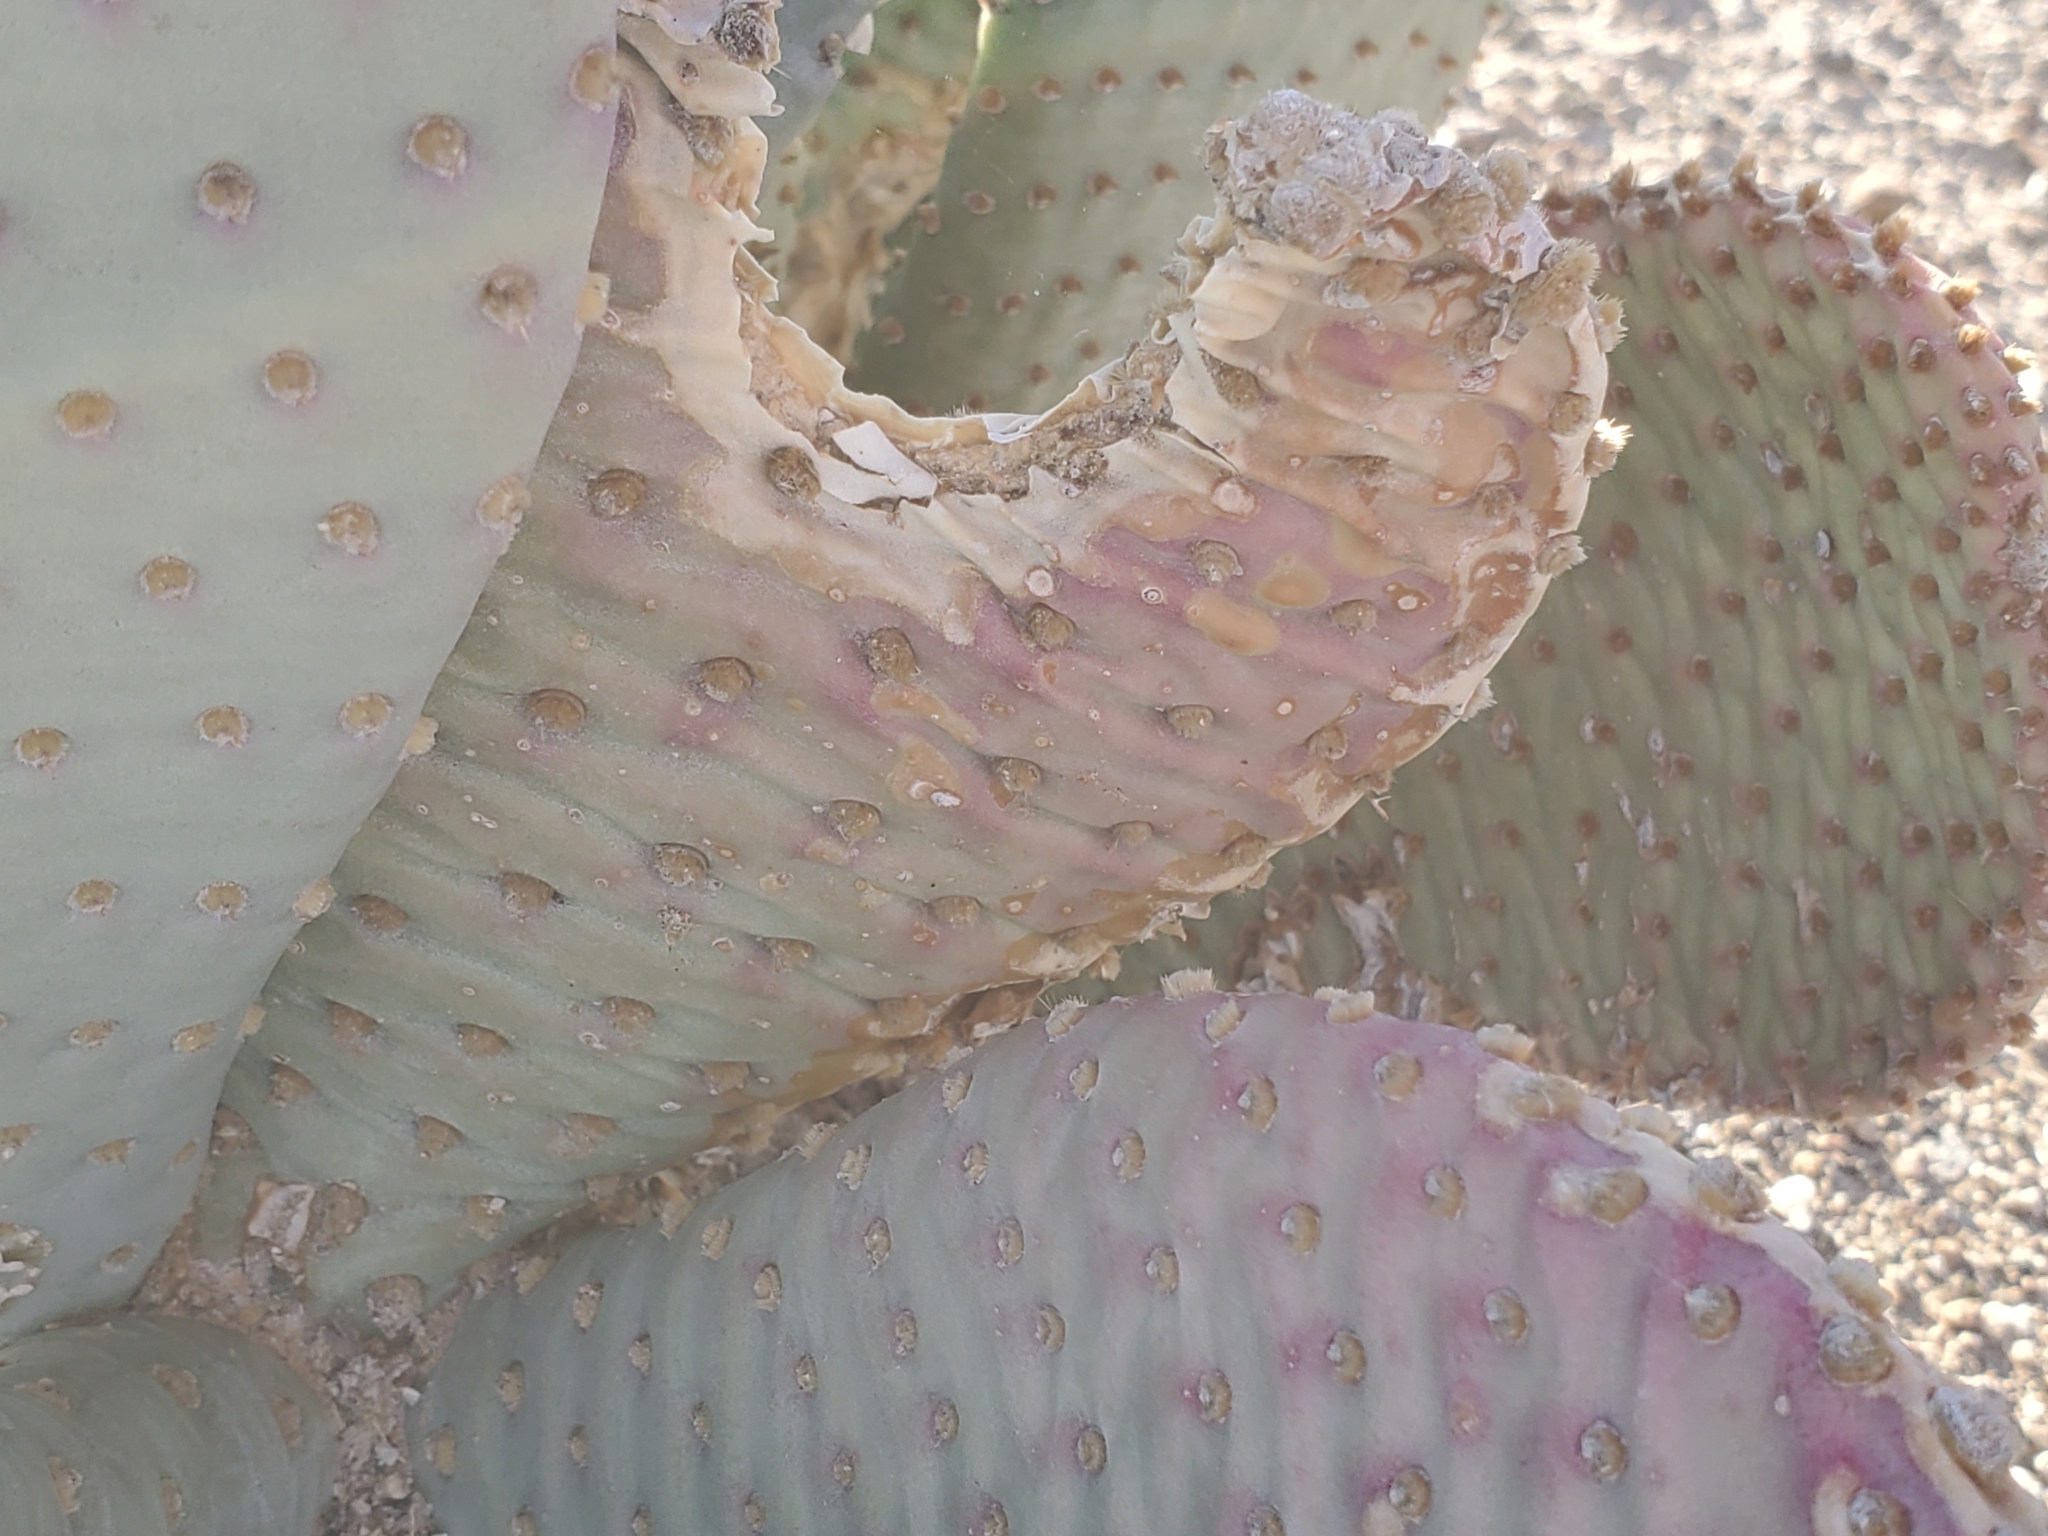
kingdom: Plantae
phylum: Tracheophyta
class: Magnoliopsida
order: Caryophyllales
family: Cactaceae
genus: Opuntia
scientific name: Opuntia basilaris
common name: Beavertail prickly-pear
